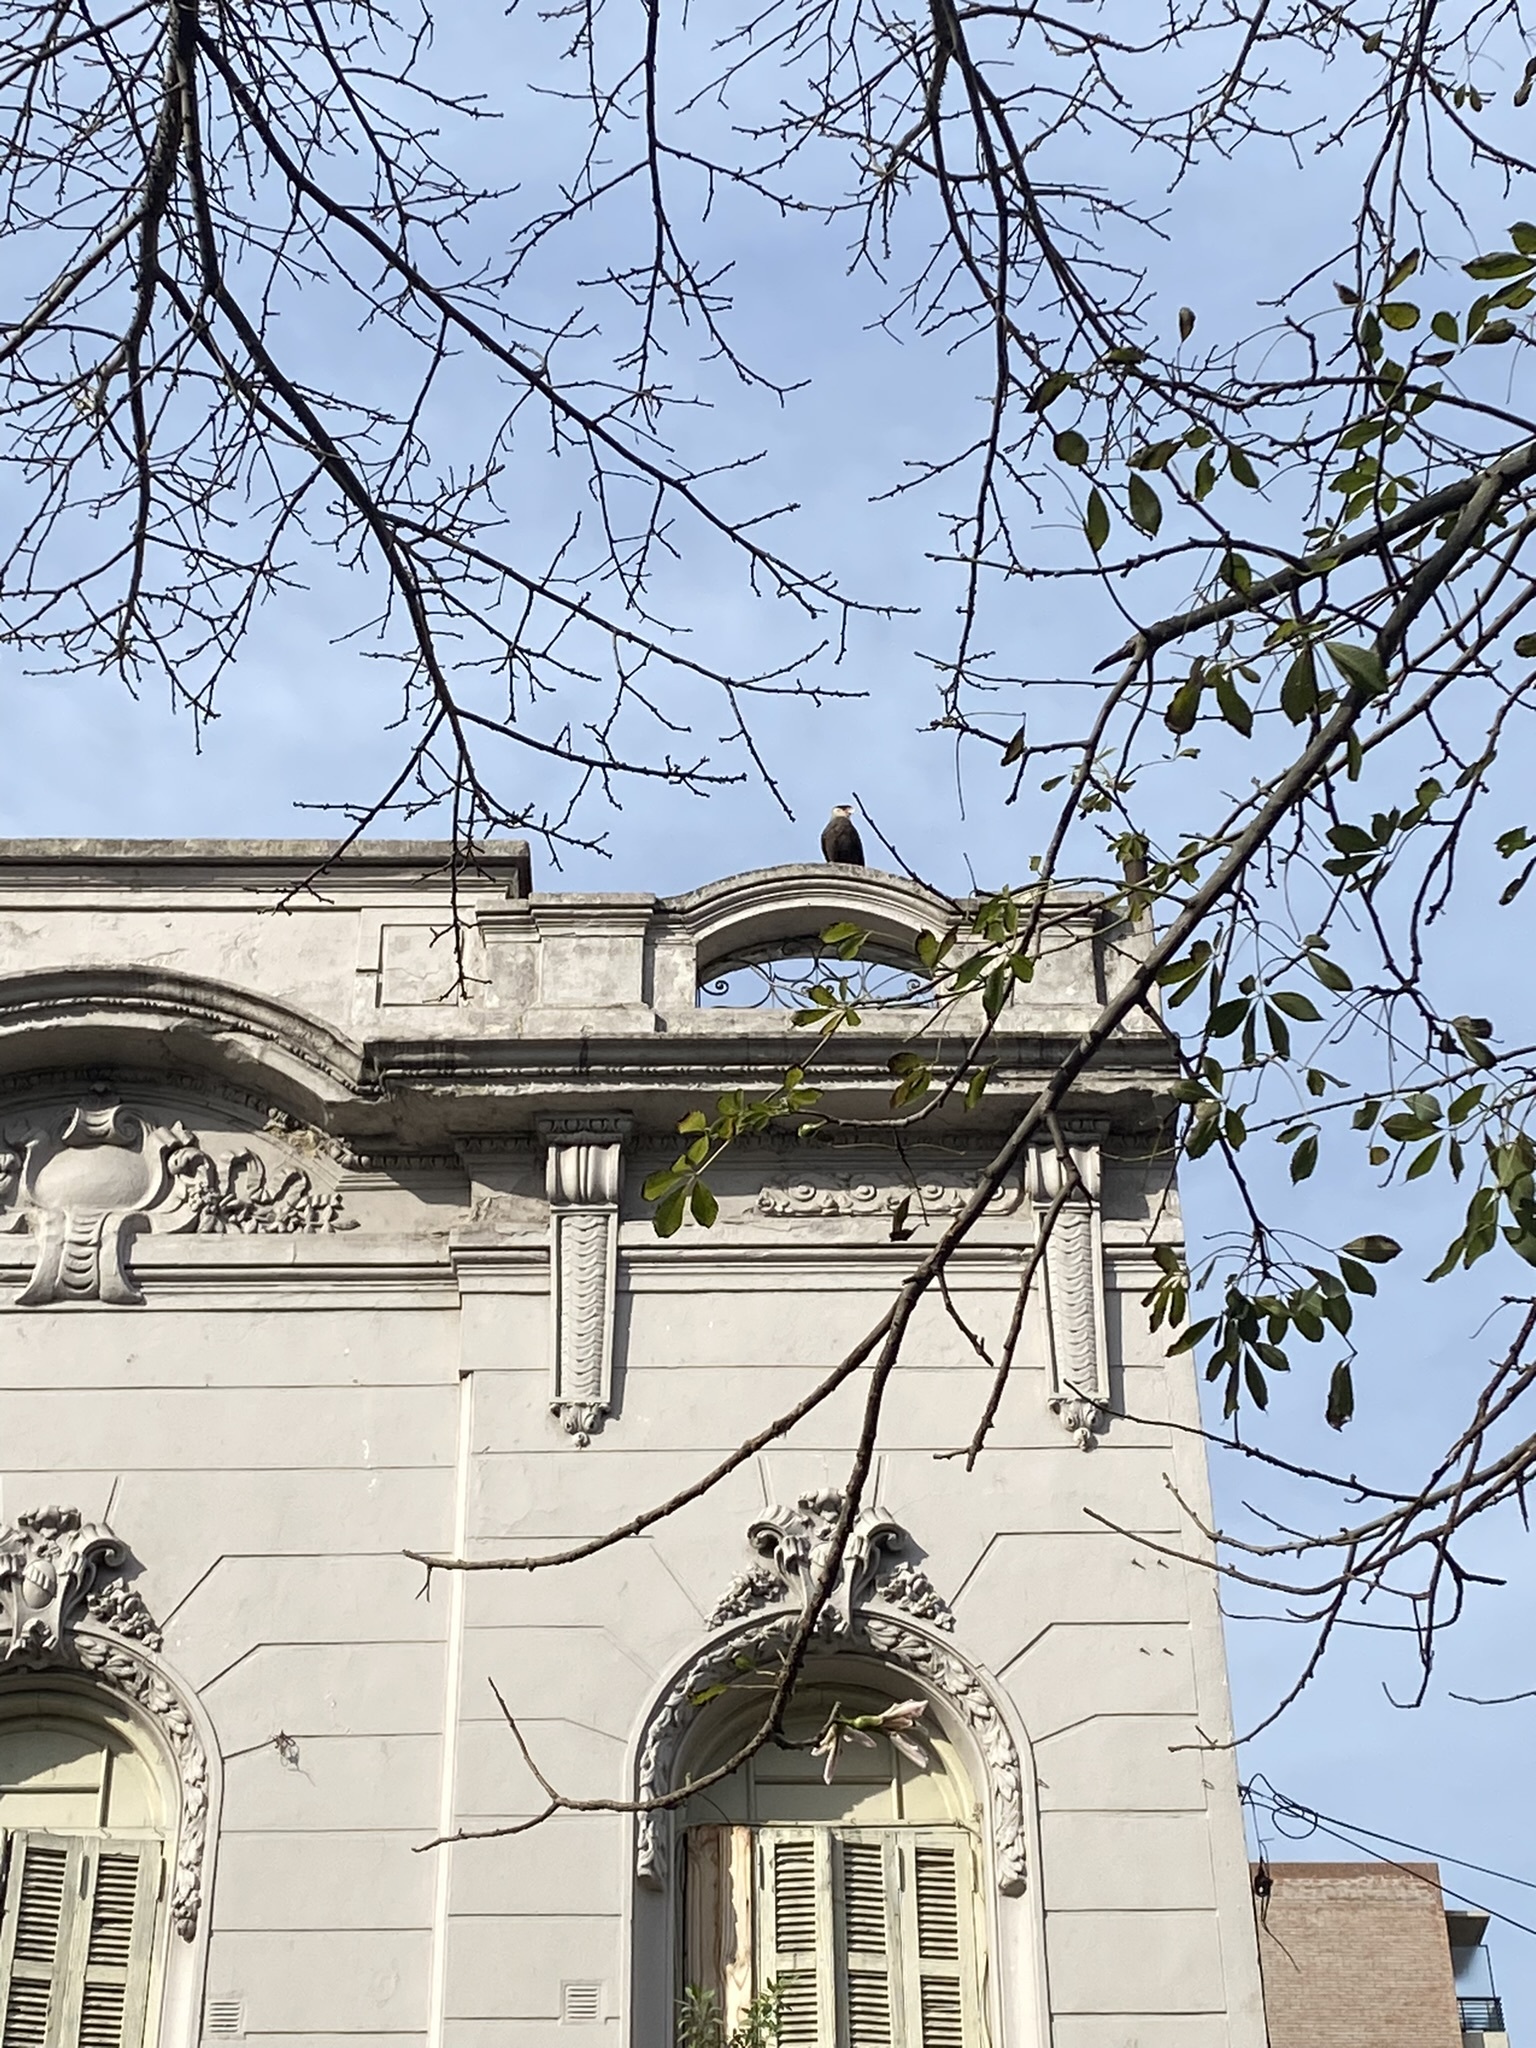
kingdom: Animalia
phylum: Chordata
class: Aves
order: Falconiformes
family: Falconidae
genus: Caracara
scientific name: Caracara plancus
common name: Southern caracara
